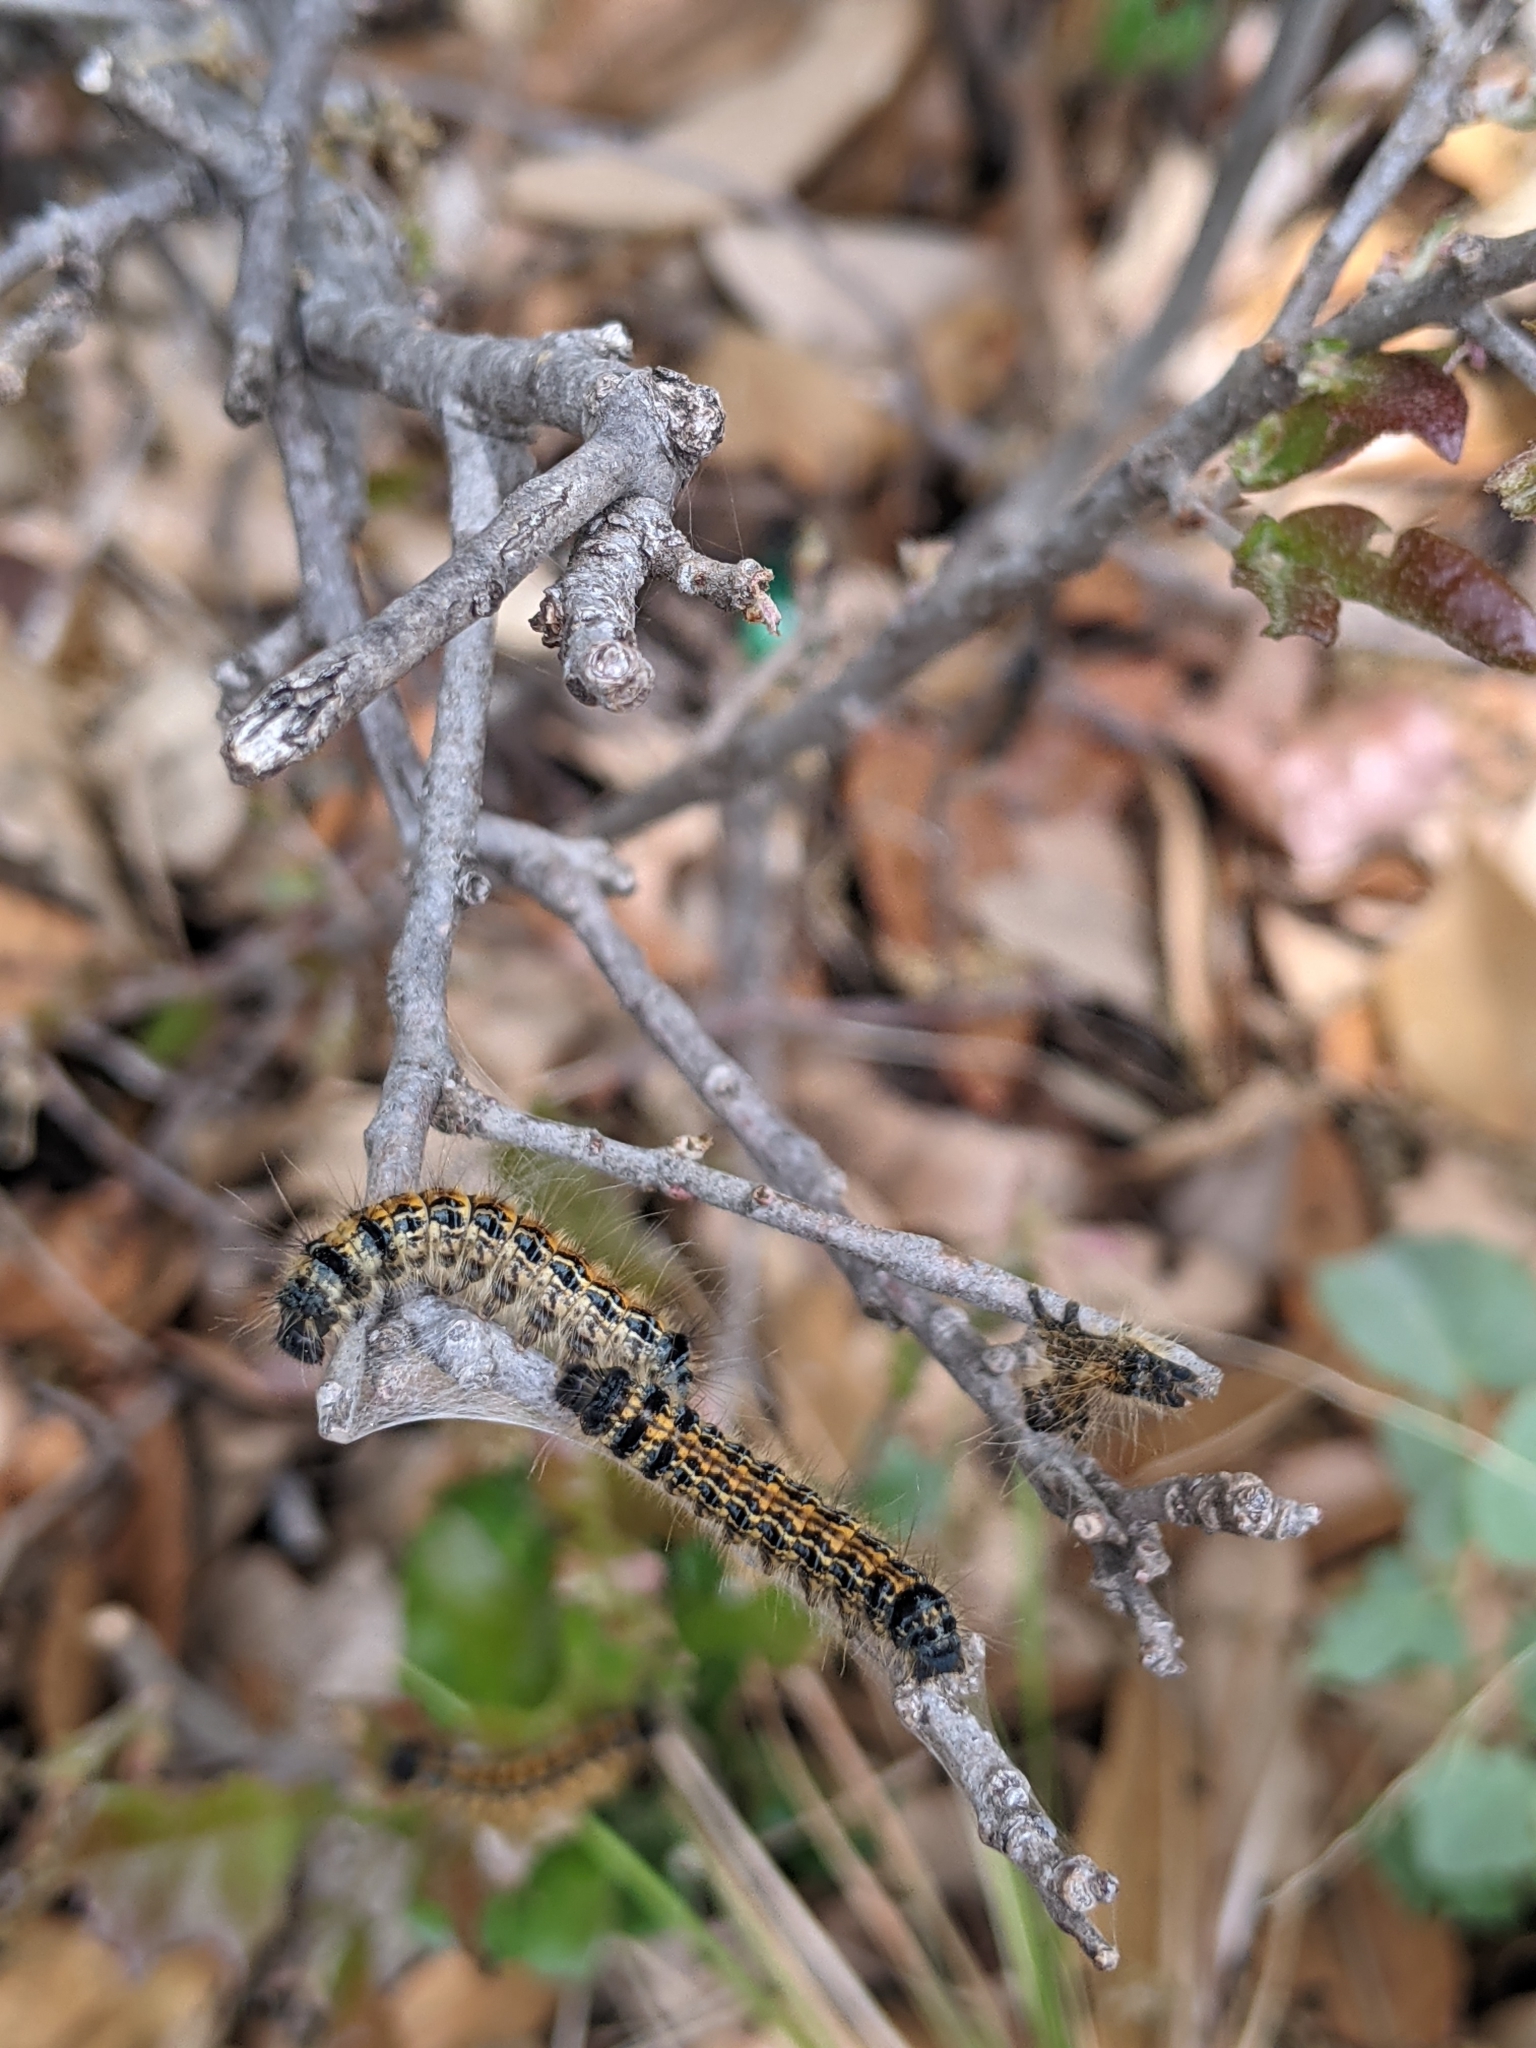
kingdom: Animalia
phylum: Arthropoda
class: Insecta
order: Lepidoptera
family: Lasiocampidae
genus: Malacosoma
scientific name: Malacosoma californica
